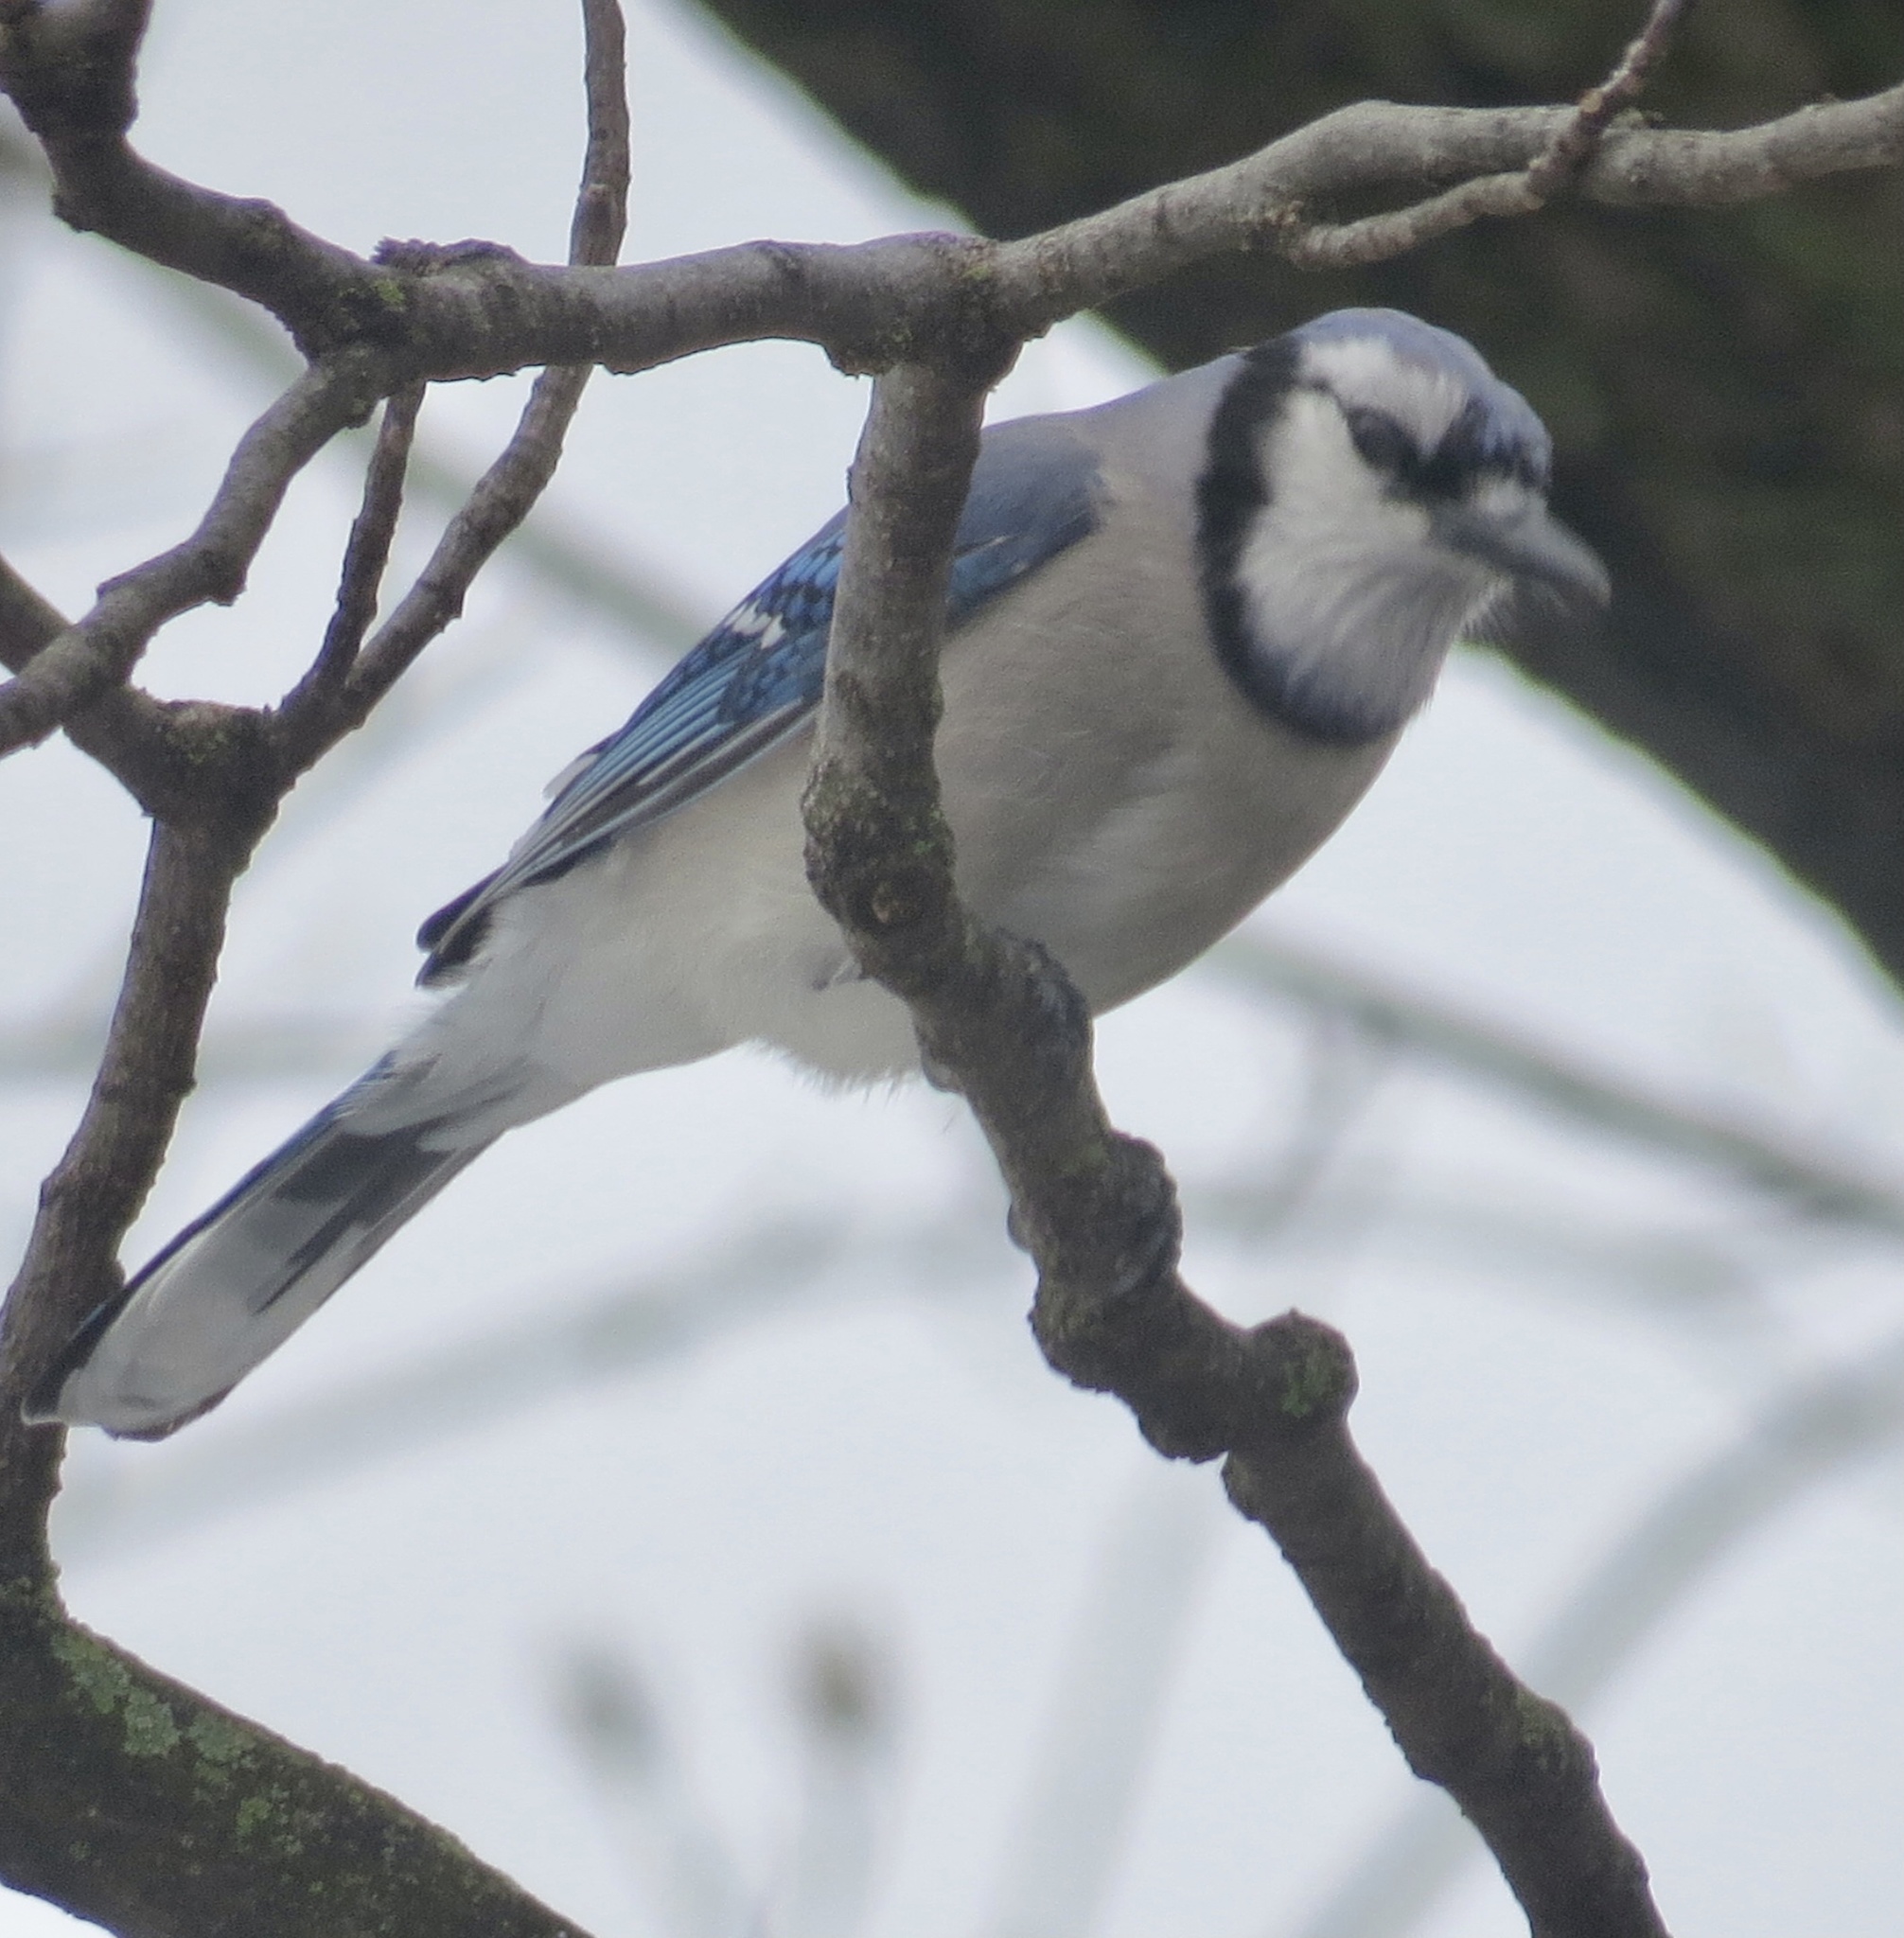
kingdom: Animalia
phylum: Chordata
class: Aves
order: Passeriformes
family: Corvidae
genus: Cyanocitta
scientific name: Cyanocitta cristata
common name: Blue jay
